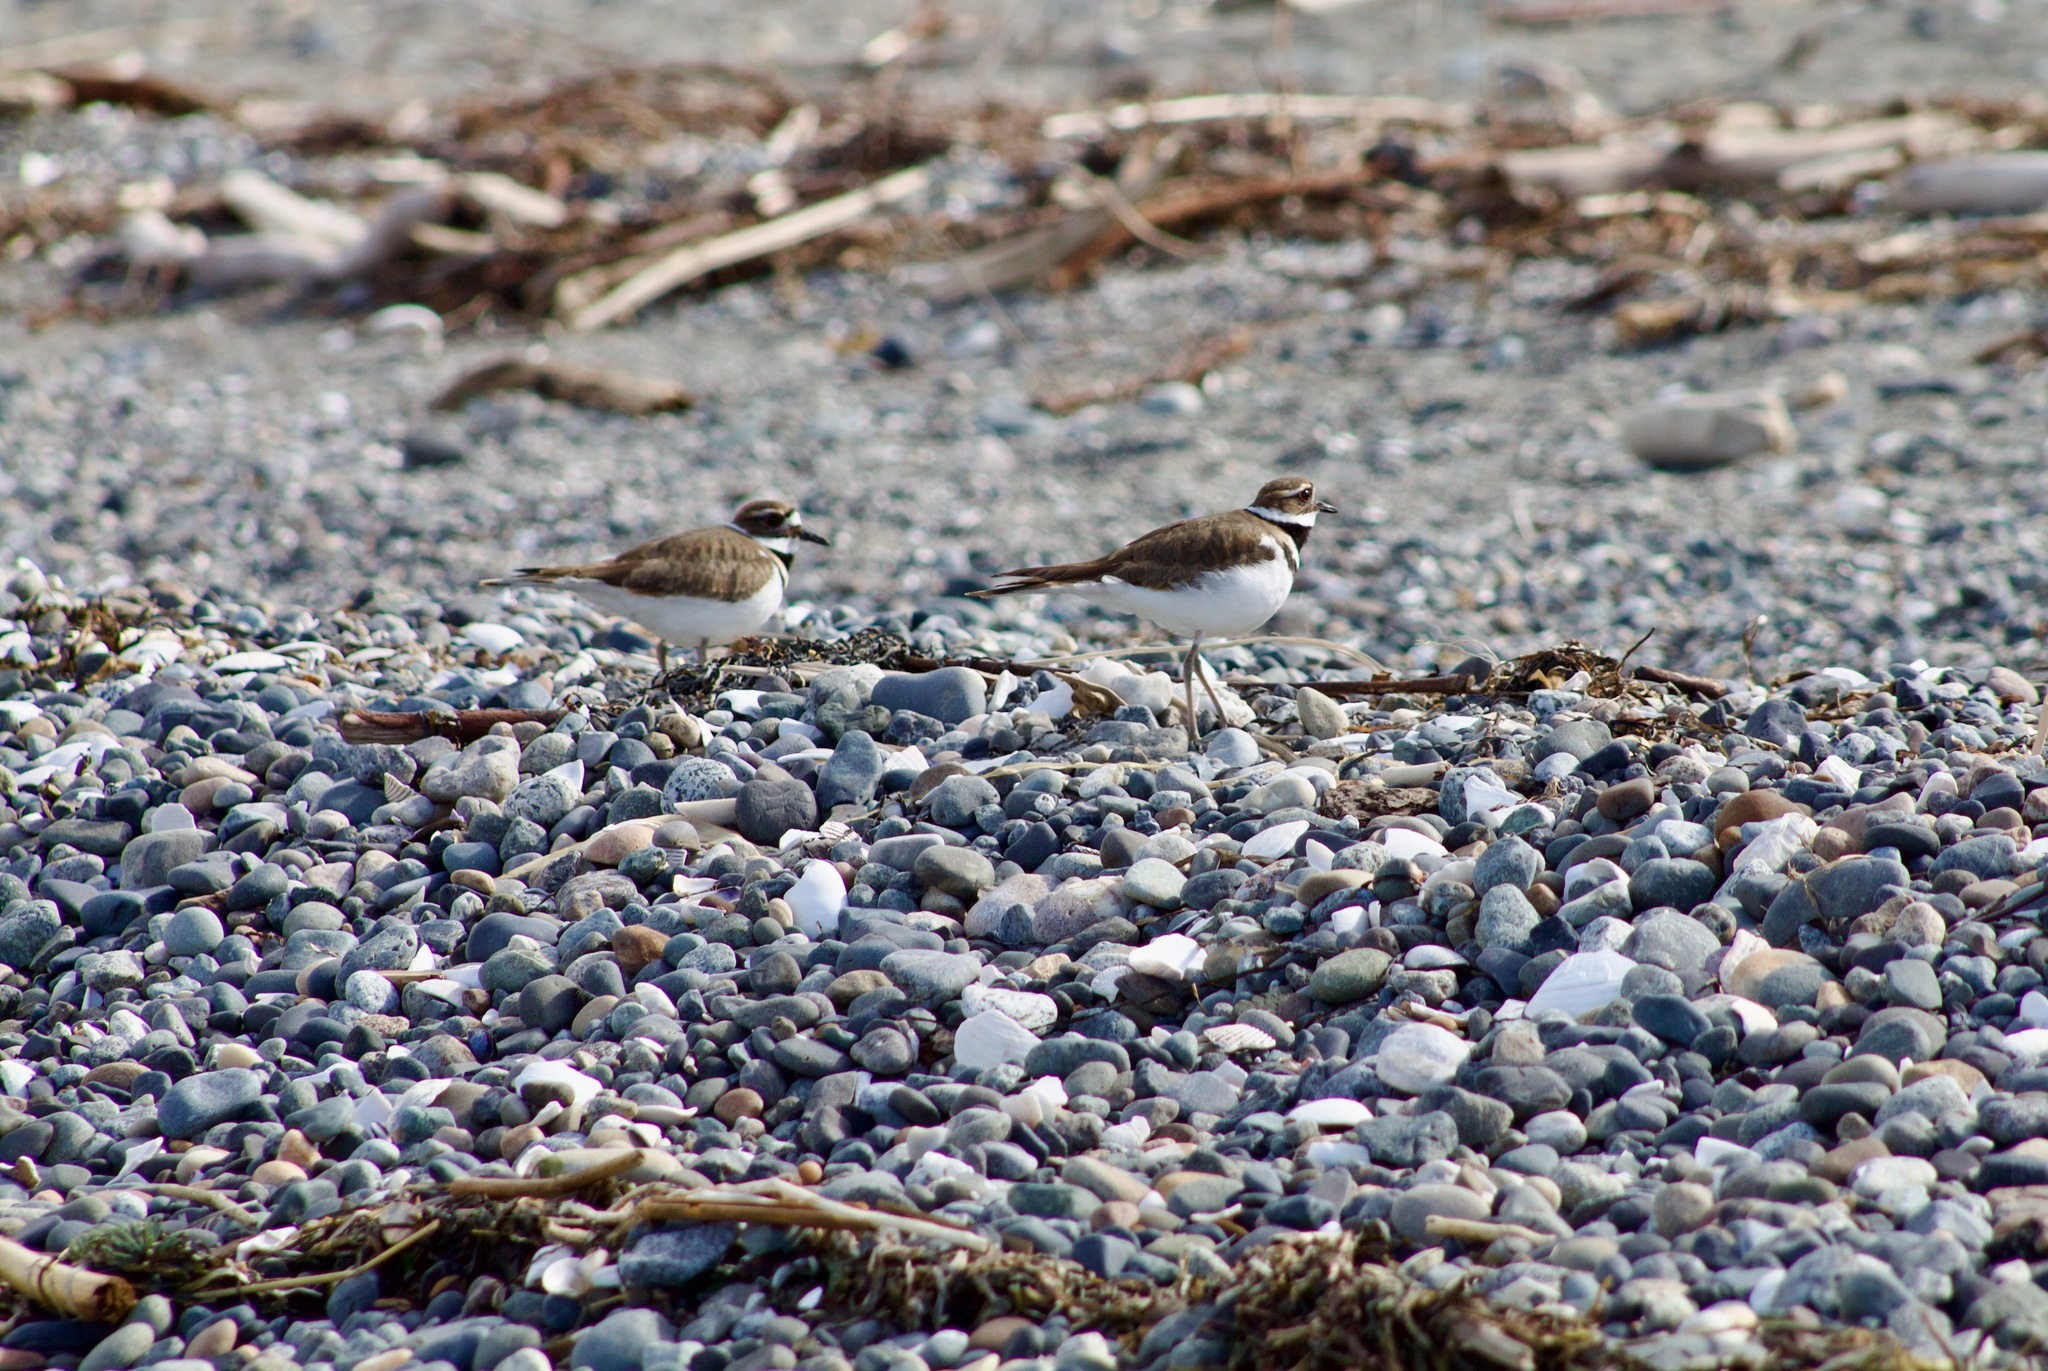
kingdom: Animalia
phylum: Chordata
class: Aves
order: Charadriiformes
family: Charadriidae
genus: Charadrius
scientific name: Charadrius vociferus
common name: Killdeer
